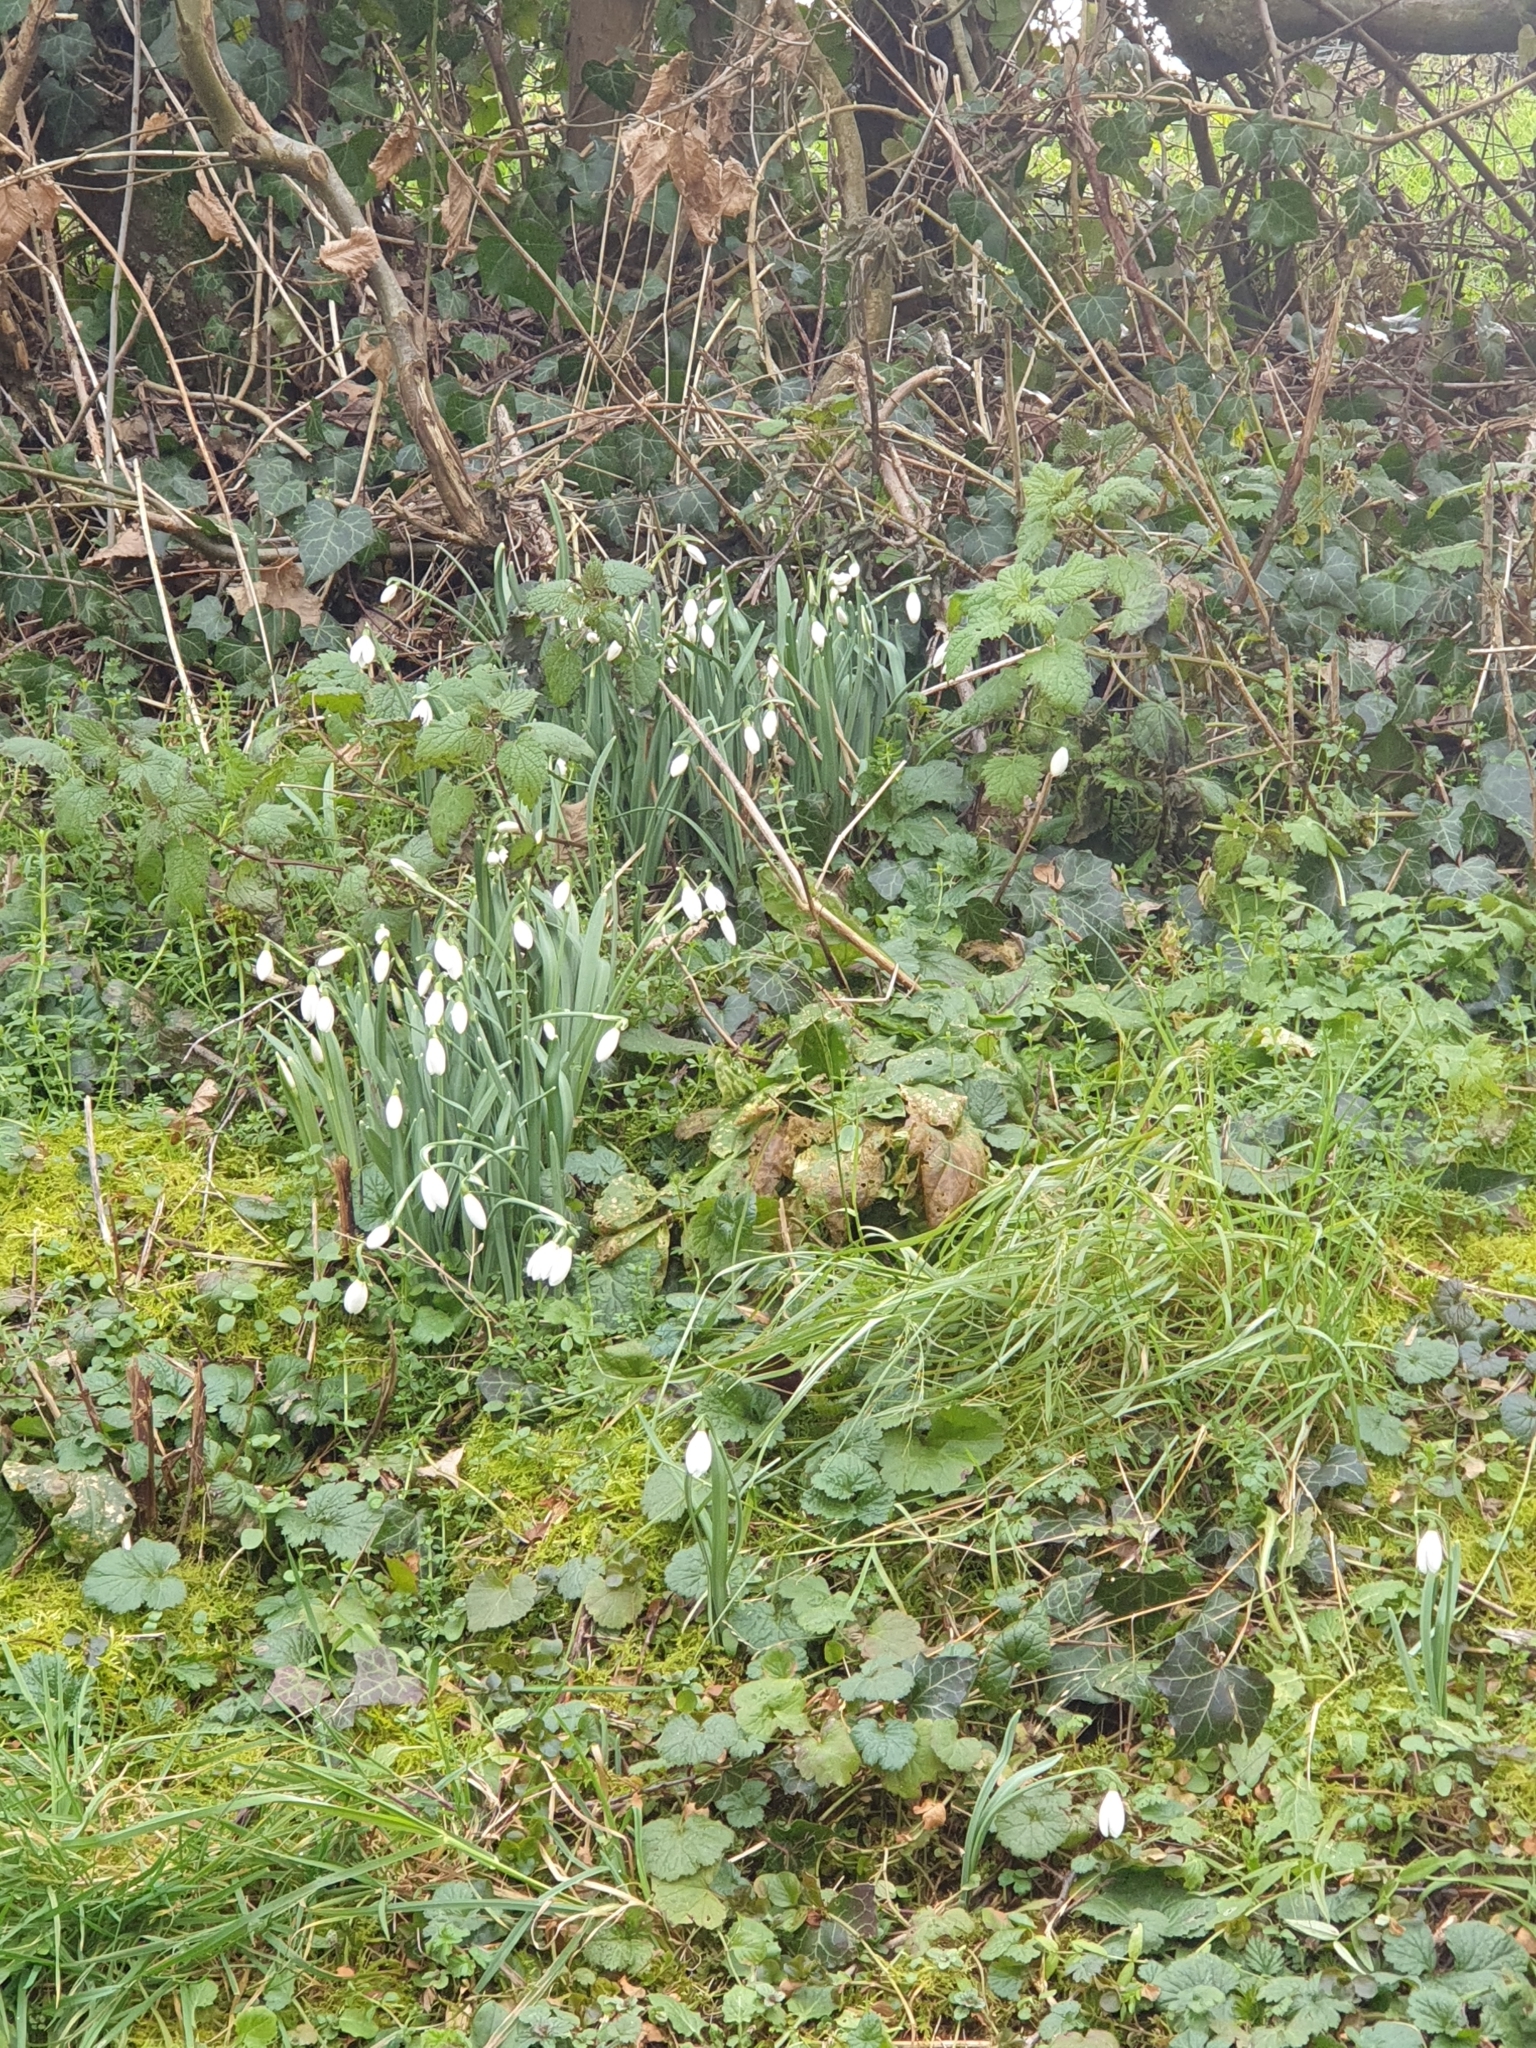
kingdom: Plantae
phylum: Tracheophyta
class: Liliopsida
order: Asparagales
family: Amaryllidaceae
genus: Galanthus
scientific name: Galanthus nivalis
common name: Snowdrop
